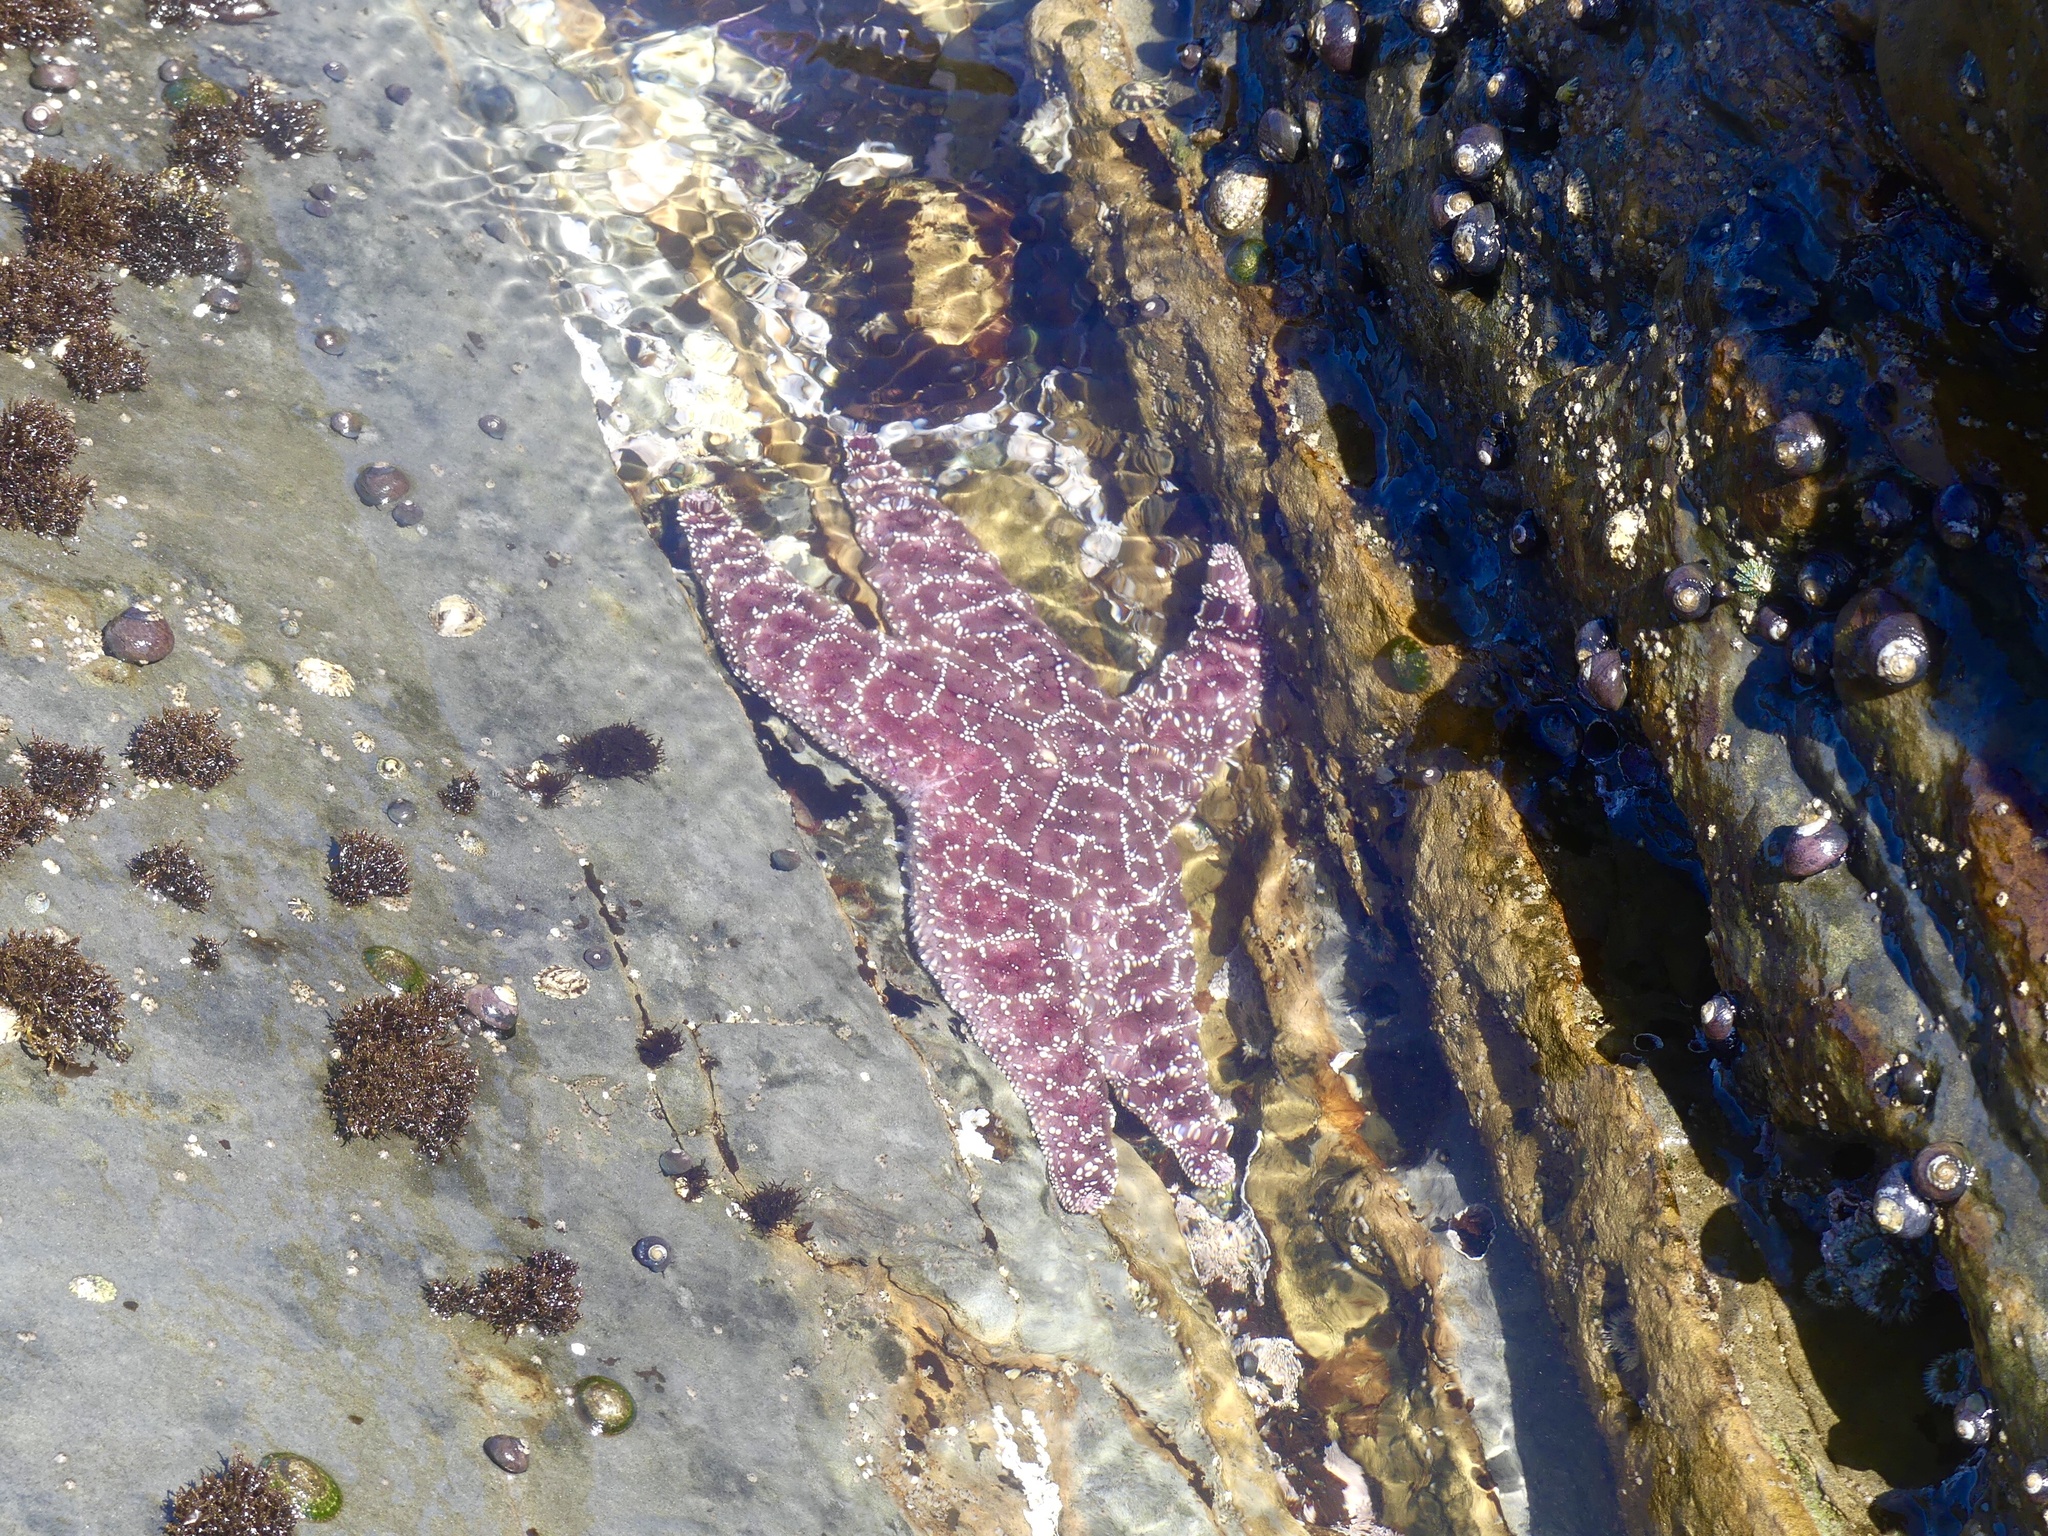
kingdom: Animalia
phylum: Echinodermata
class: Asteroidea
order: Forcipulatida
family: Asteriidae
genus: Pisaster
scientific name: Pisaster ochraceus
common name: Ochre stars
